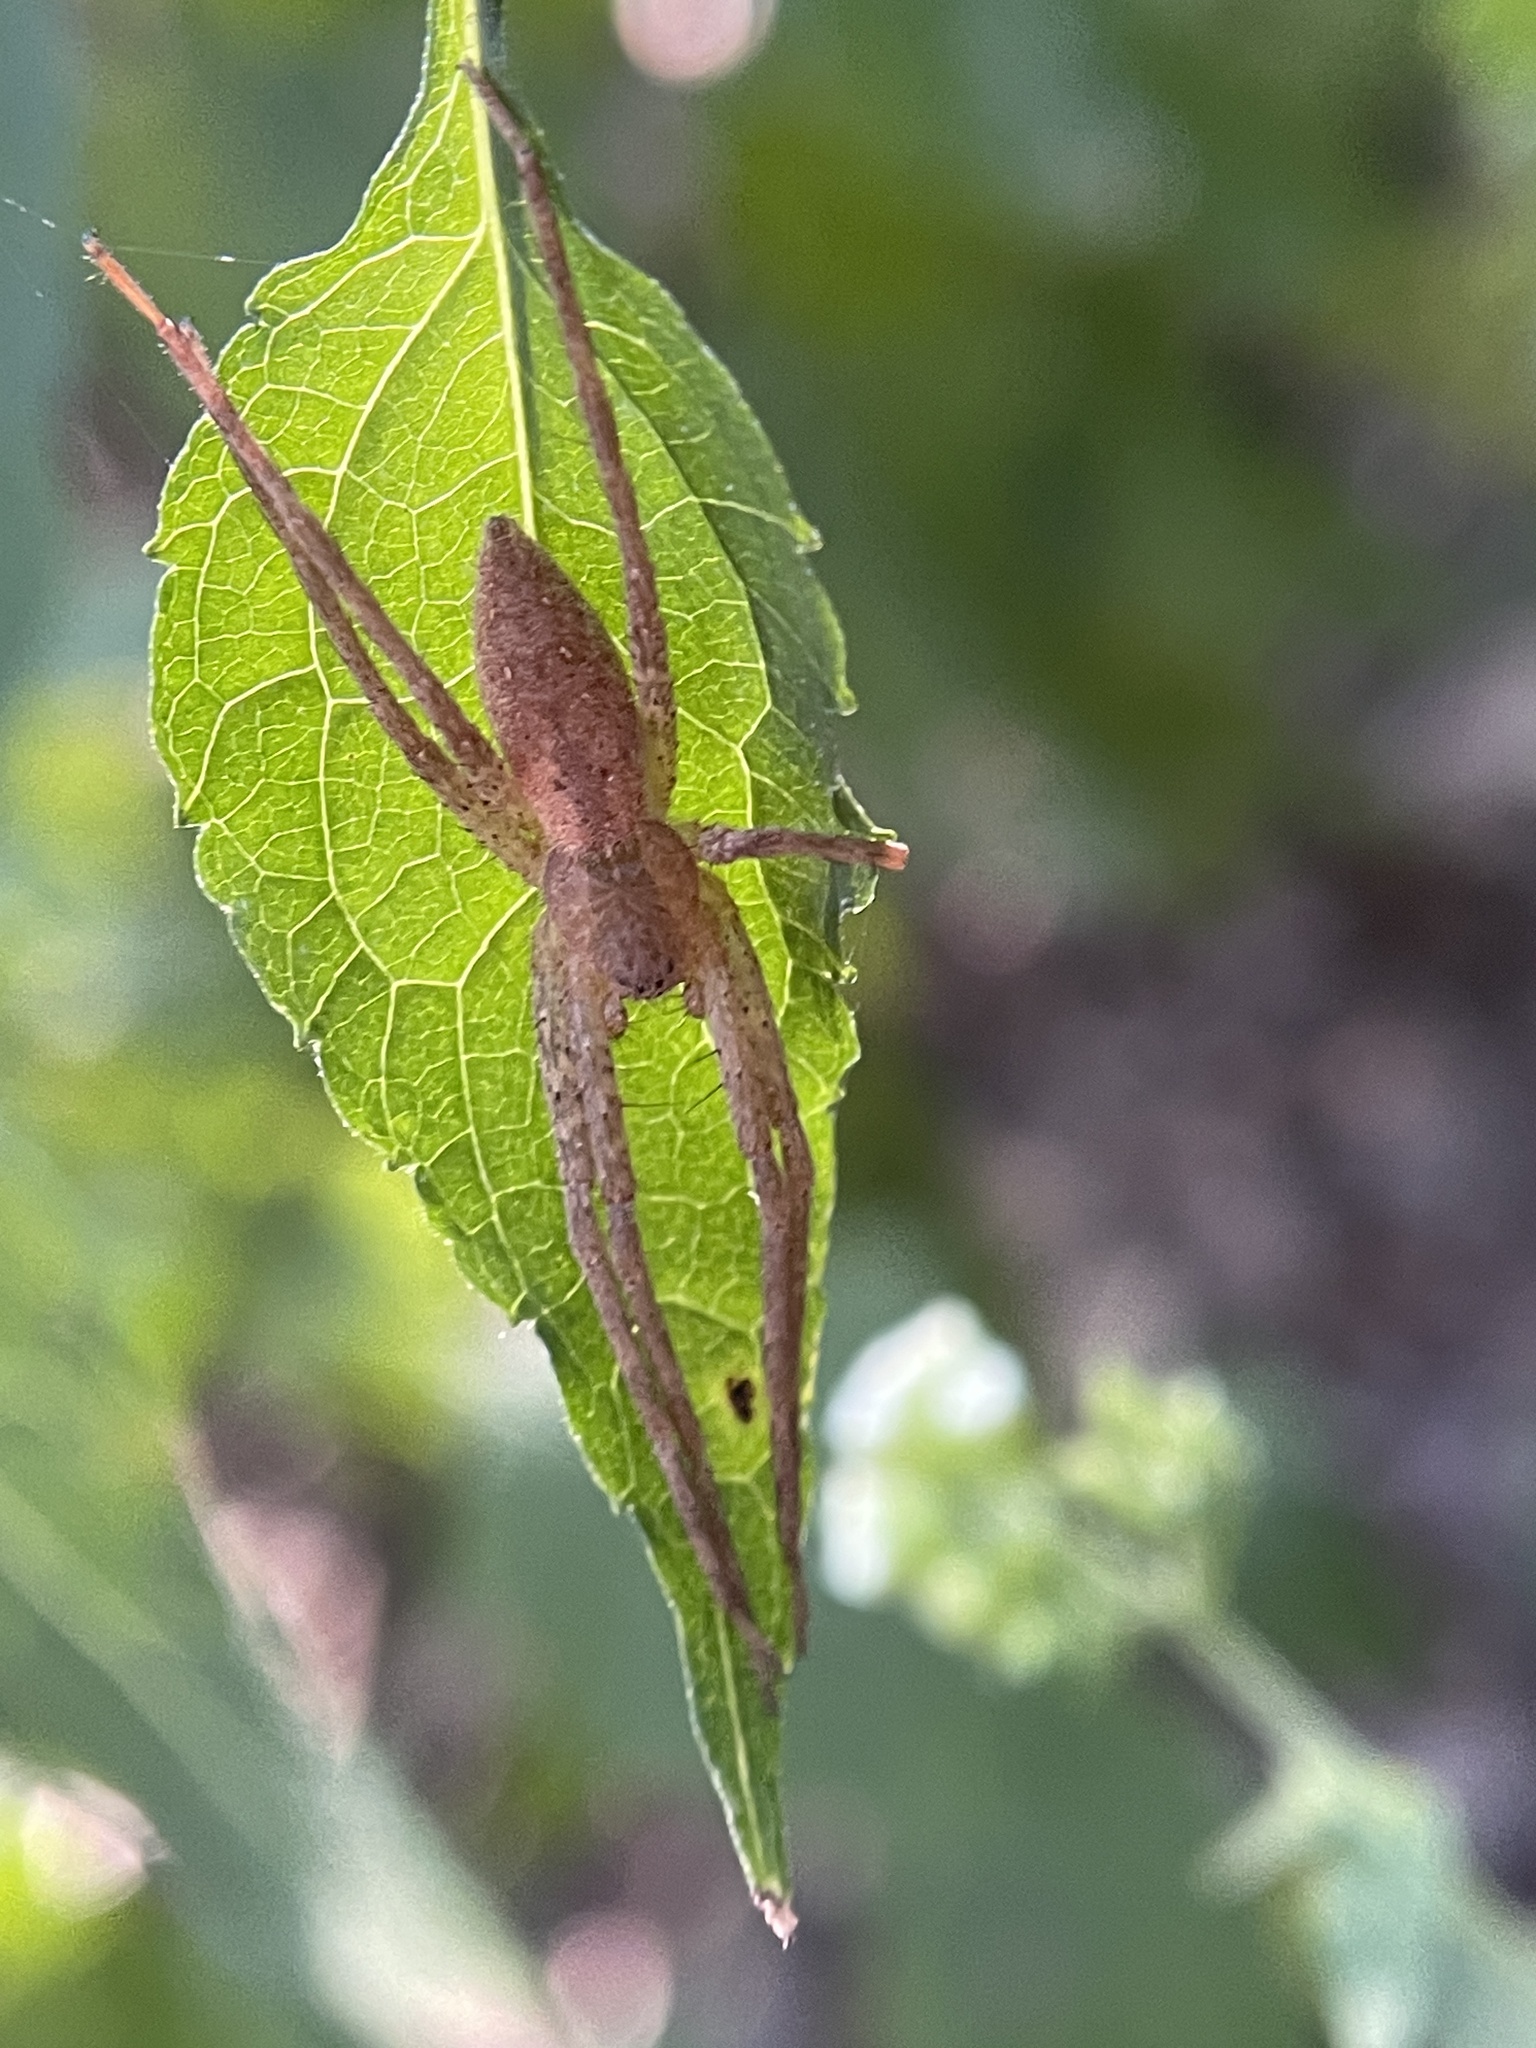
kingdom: Animalia
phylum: Arthropoda
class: Arachnida
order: Araneae
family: Pisauridae
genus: Pisaurina
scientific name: Pisaurina mira
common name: American nursery web spider
